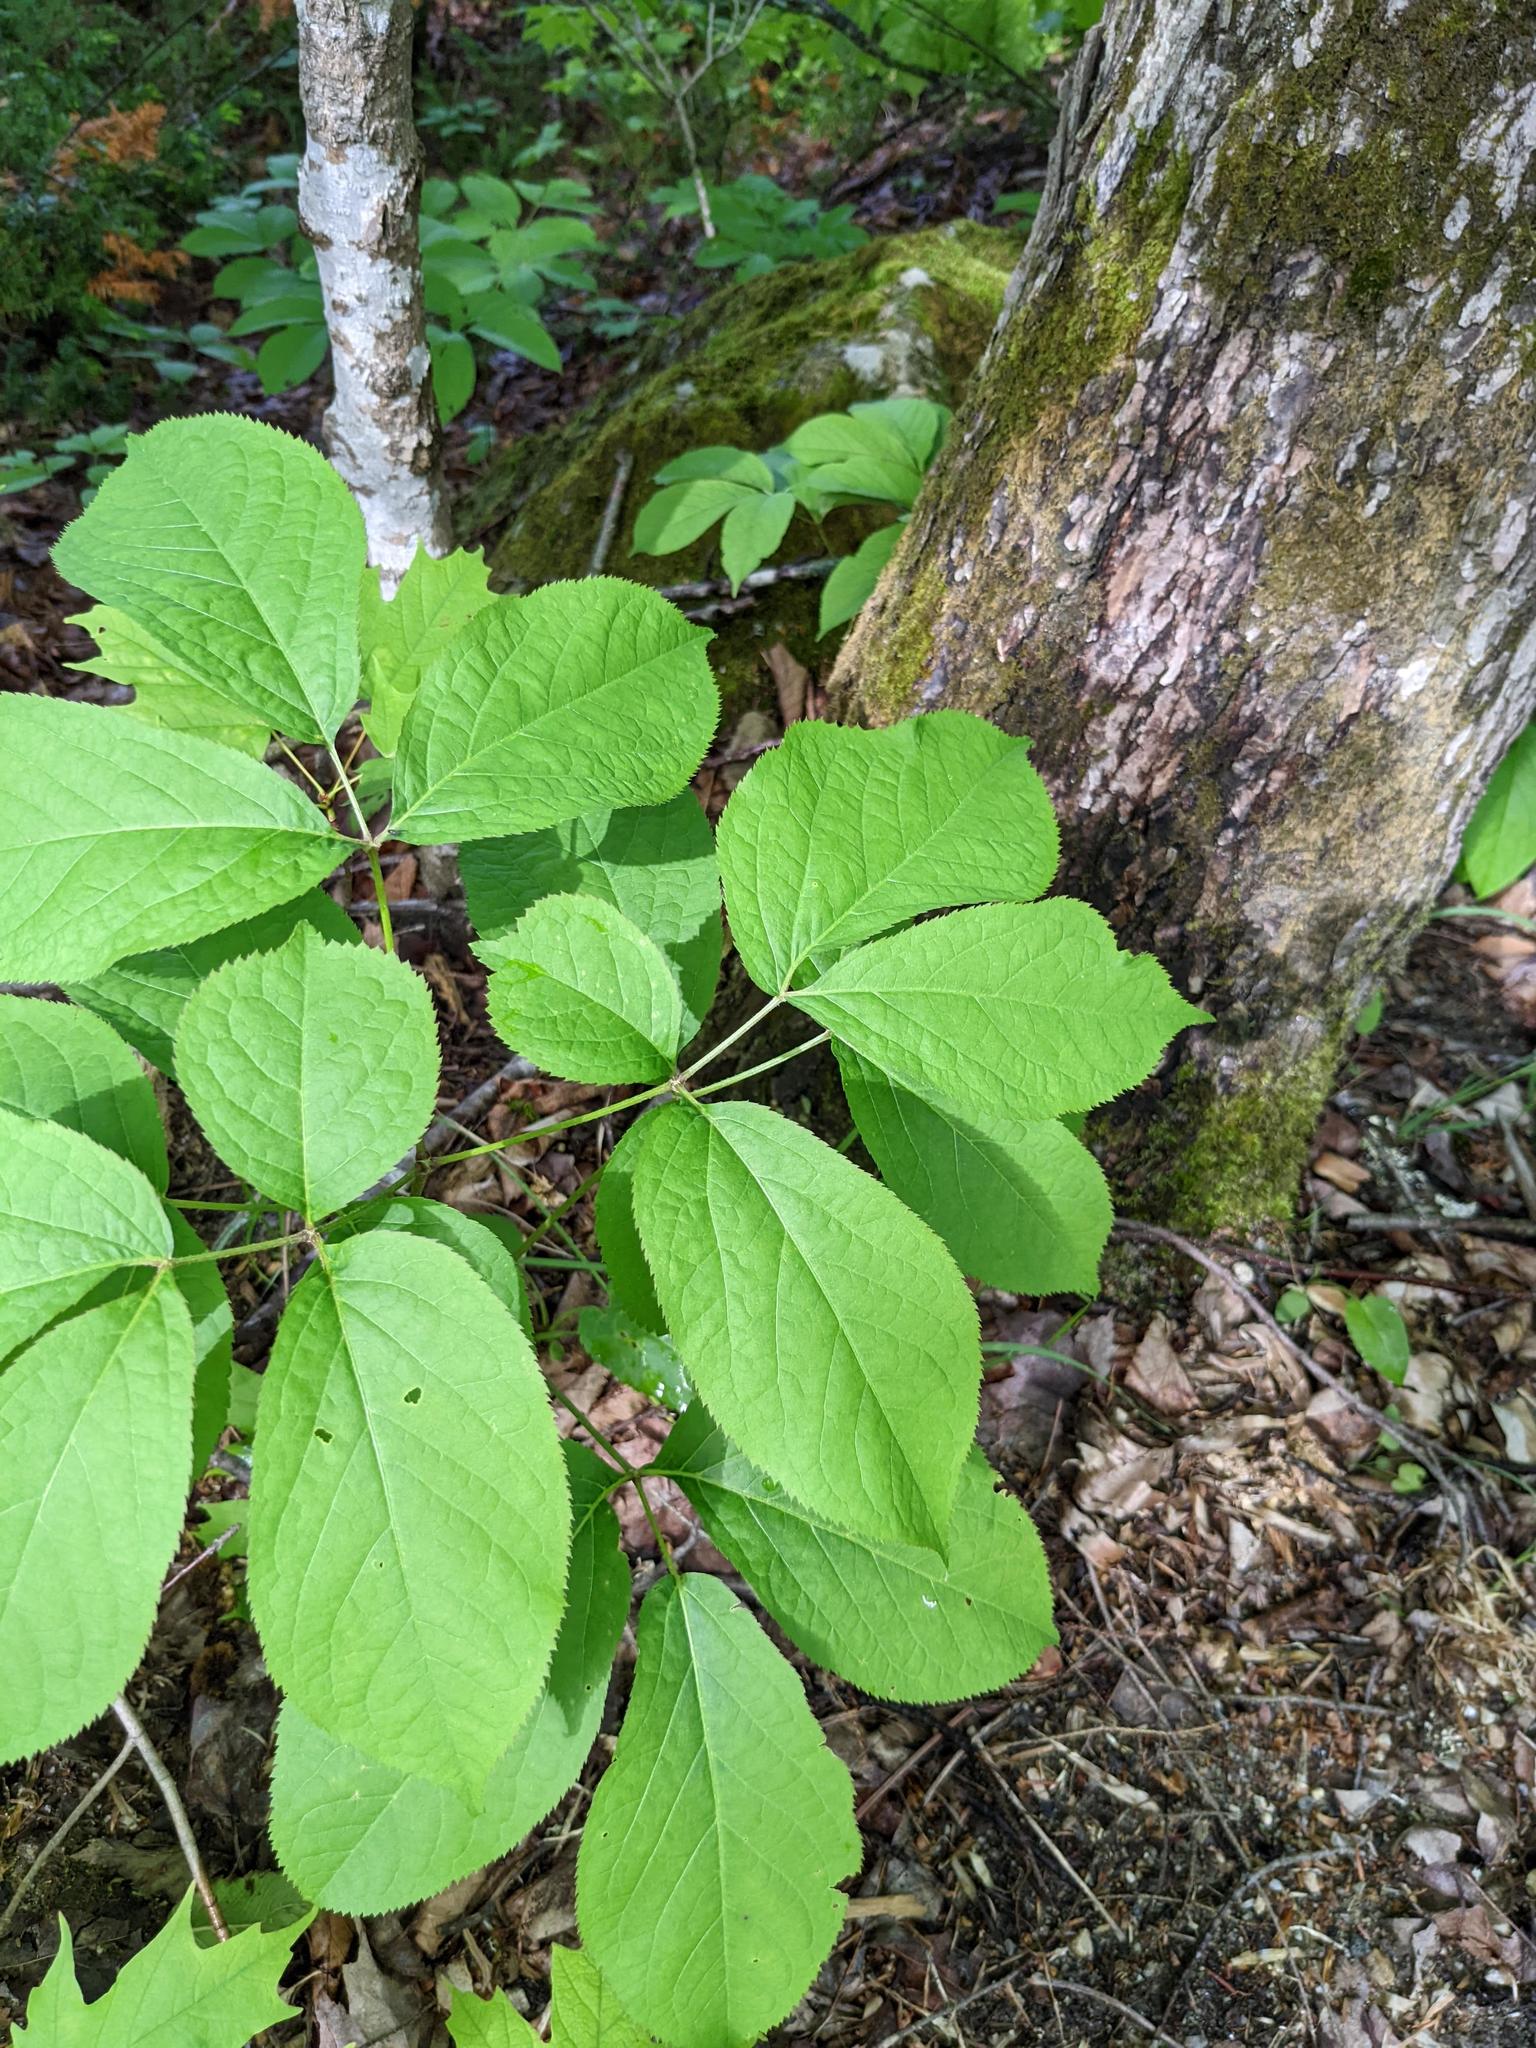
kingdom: Plantae
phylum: Tracheophyta
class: Magnoliopsida
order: Apiales
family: Araliaceae
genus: Aralia
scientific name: Aralia nudicaulis
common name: Wild sarsaparilla
